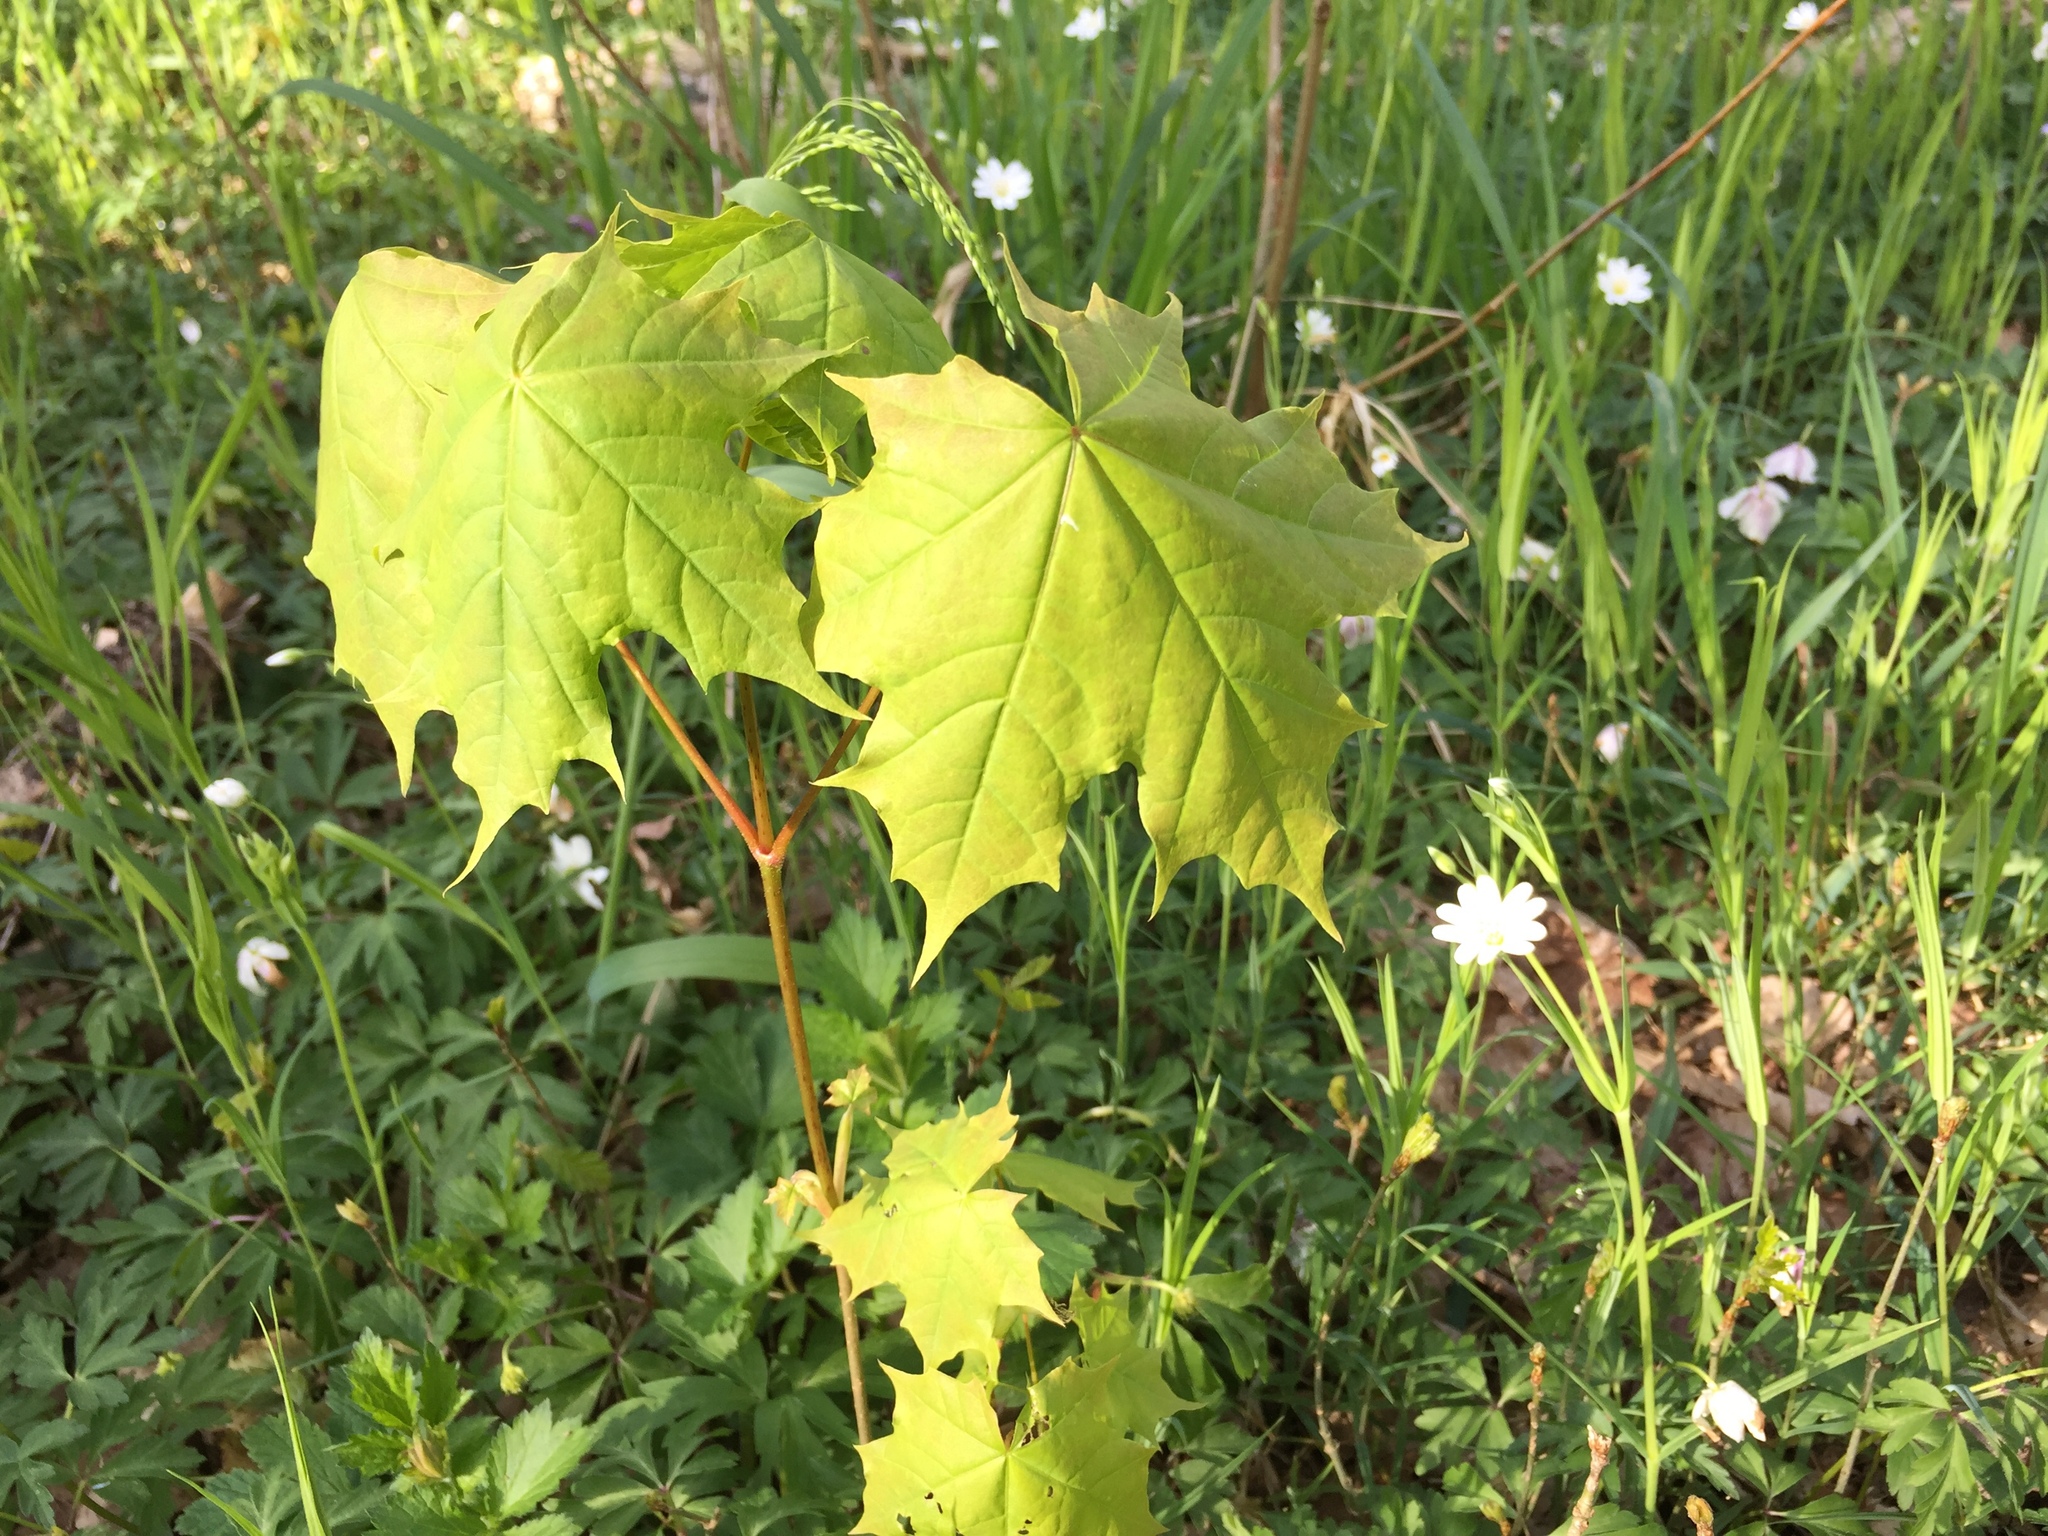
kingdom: Plantae
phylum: Tracheophyta
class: Magnoliopsida
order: Sapindales
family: Sapindaceae
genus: Acer
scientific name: Acer platanoides
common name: Norway maple
